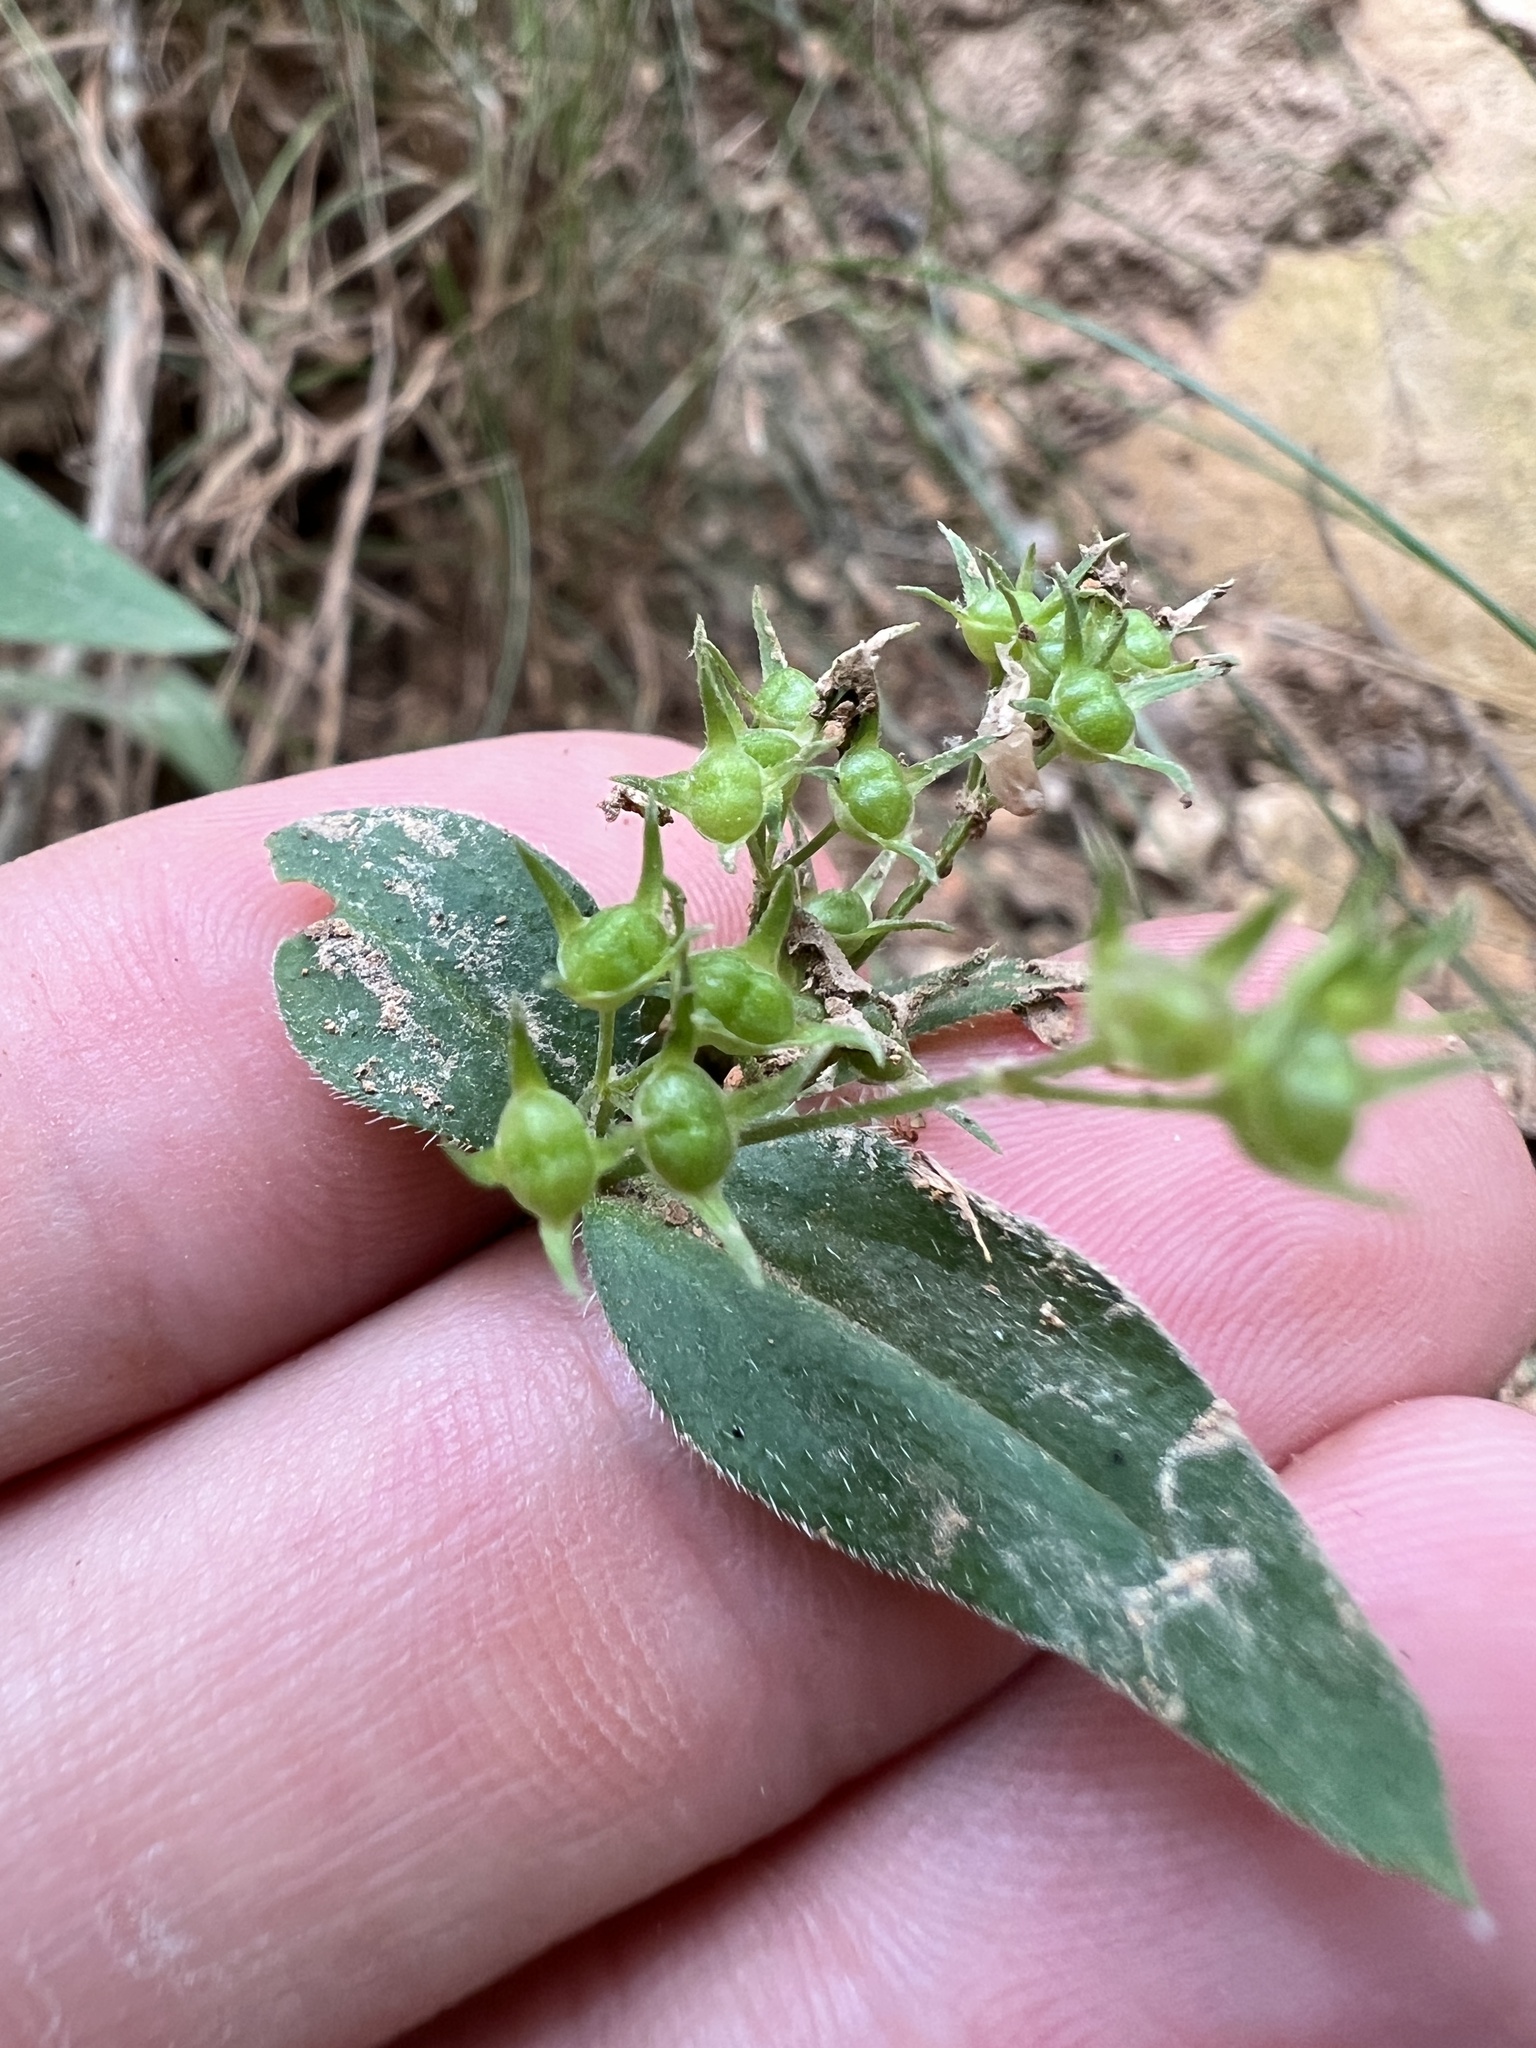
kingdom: Plantae
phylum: Tracheophyta
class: Magnoliopsida
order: Gentianales
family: Rubiaceae
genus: Houstonia
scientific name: Houstonia purpurea
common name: Summer bluet
